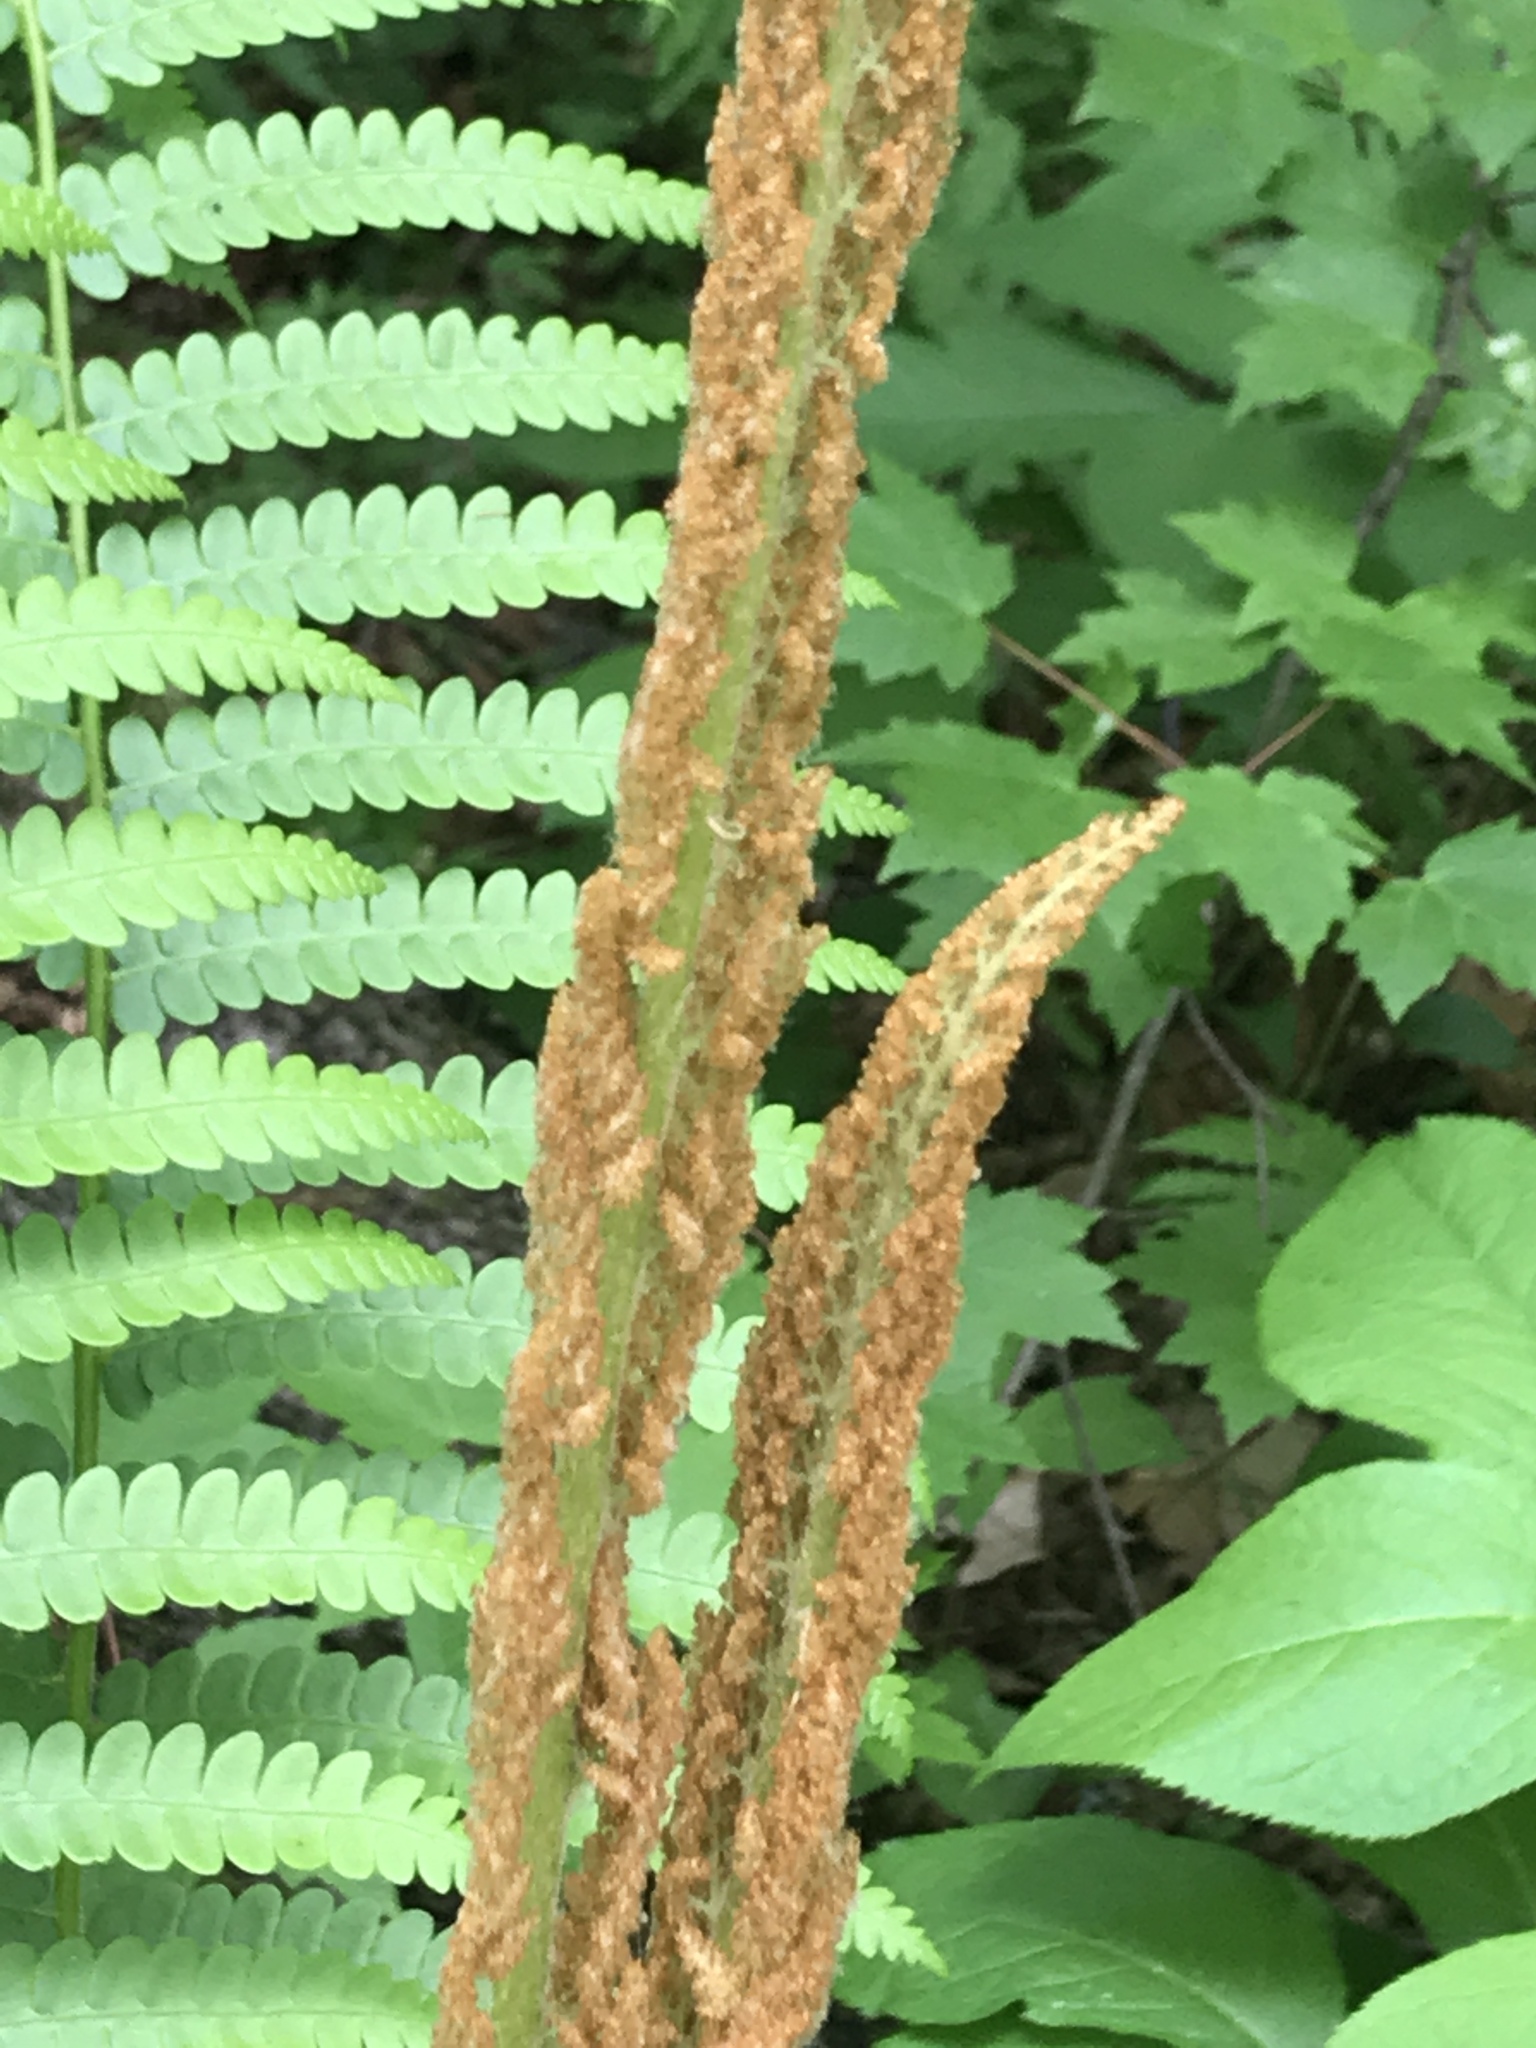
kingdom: Plantae
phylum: Tracheophyta
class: Polypodiopsida
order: Osmundales
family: Osmundaceae
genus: Osmundastrum
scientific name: Osmundastrum cinnamomeum
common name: Cinnamon fern
